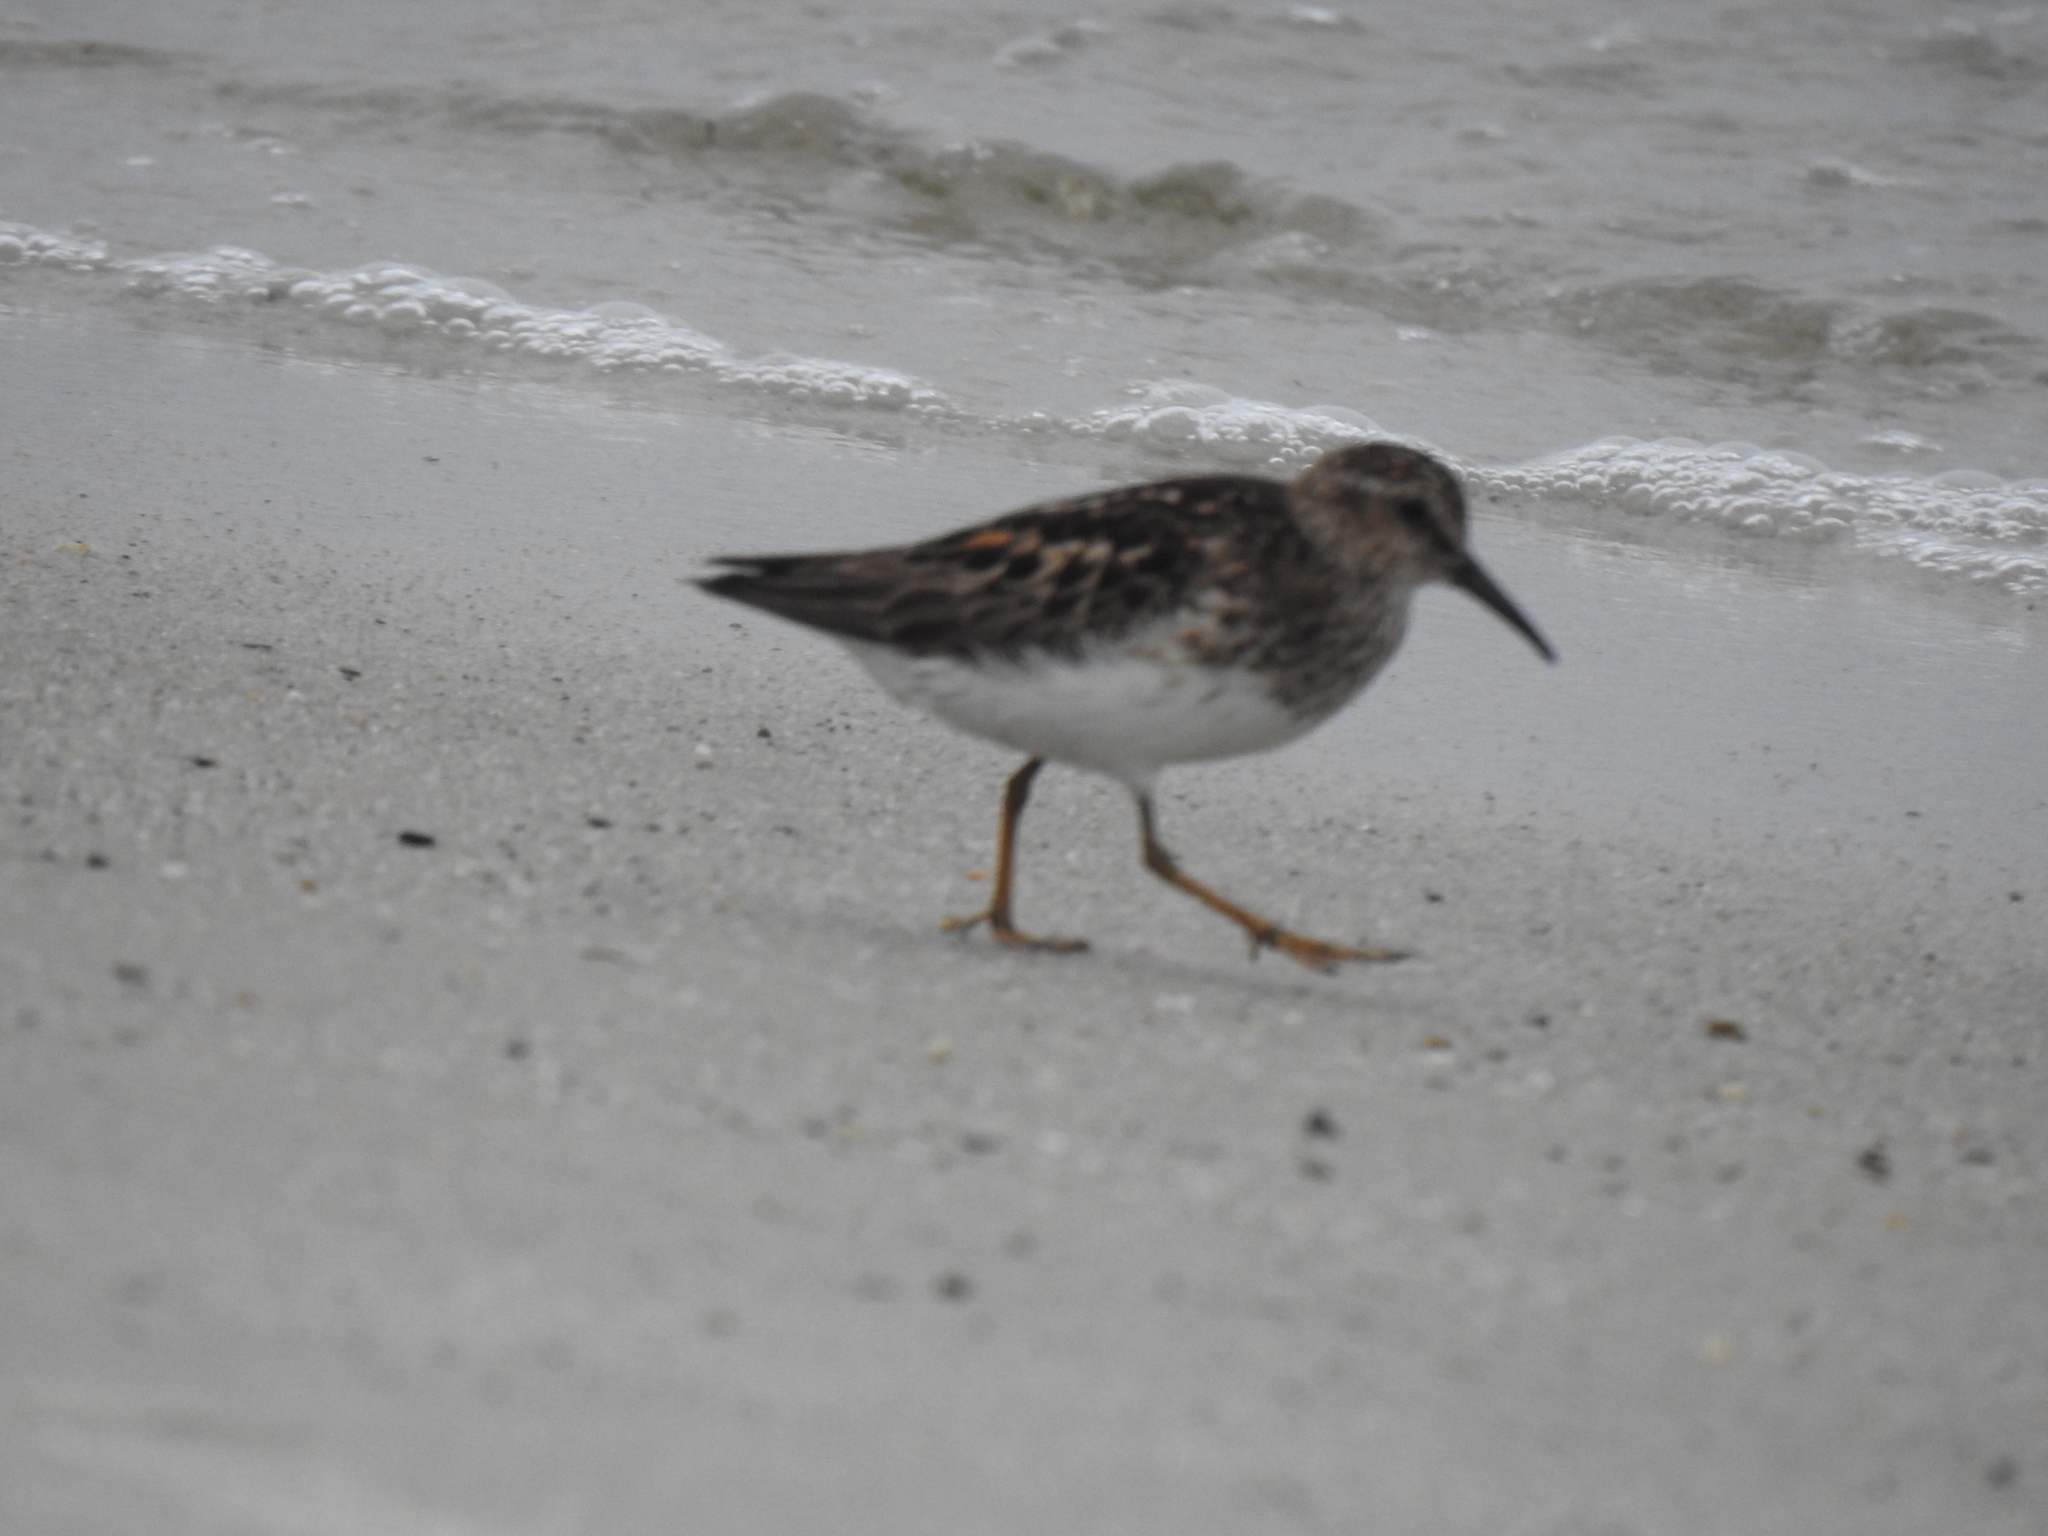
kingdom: Animalia
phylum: Chordata
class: Aves
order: Charadriiformes
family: Scolopacidae
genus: Calidris
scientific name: Calidris minutilla
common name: Least sandpiper
